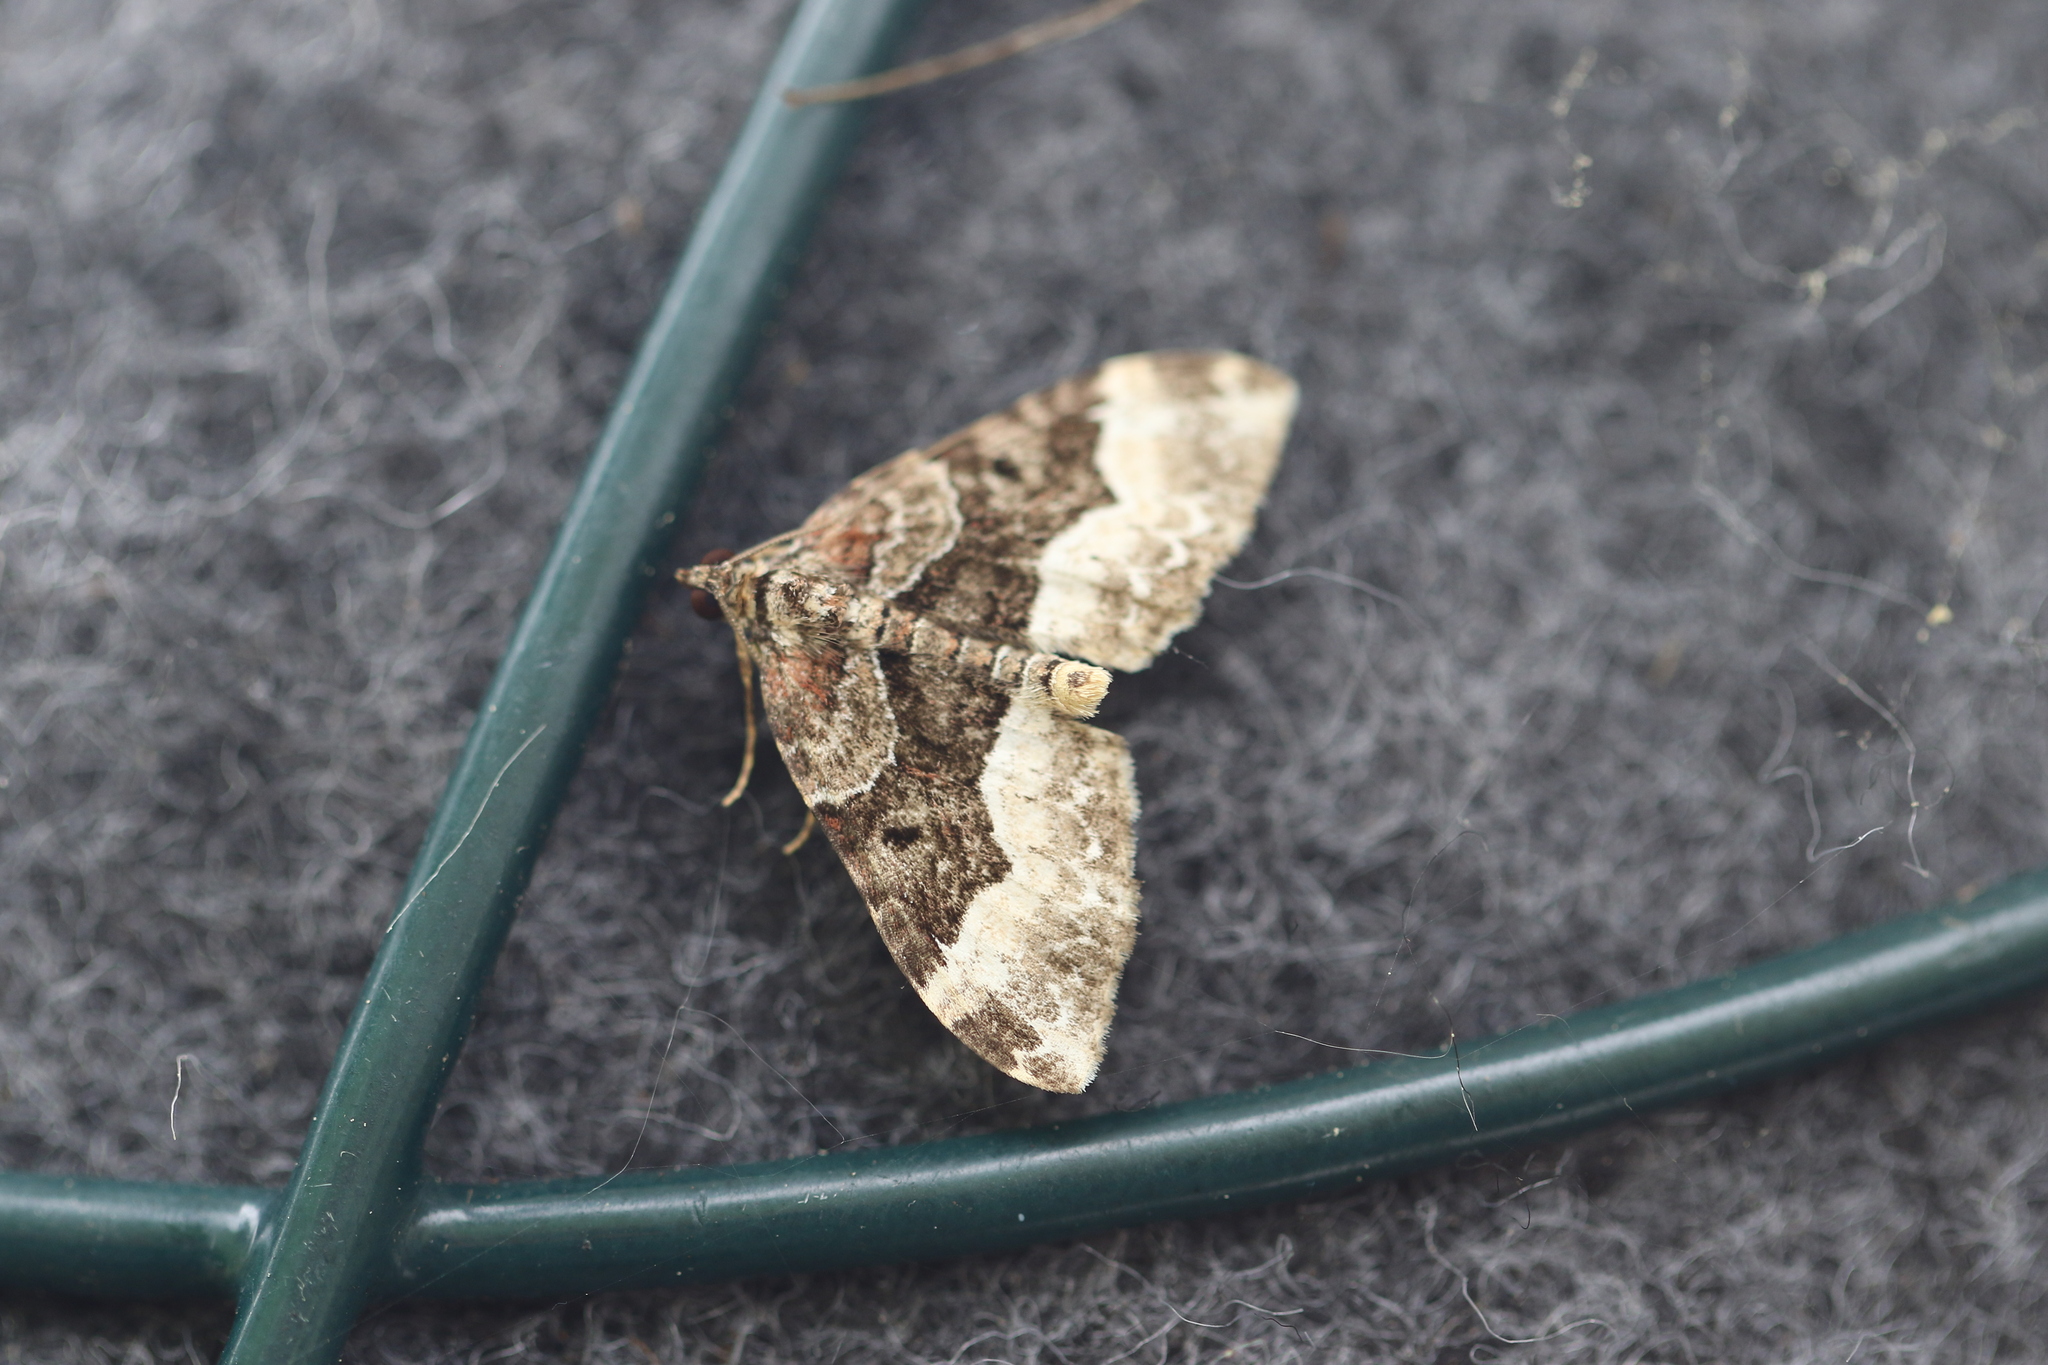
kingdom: Animalia
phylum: Arthropoda
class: Insecta
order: Lepidoptera
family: Geometridae
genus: Euphyia
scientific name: Euphyia intermediata
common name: Sharp-angled carpet
